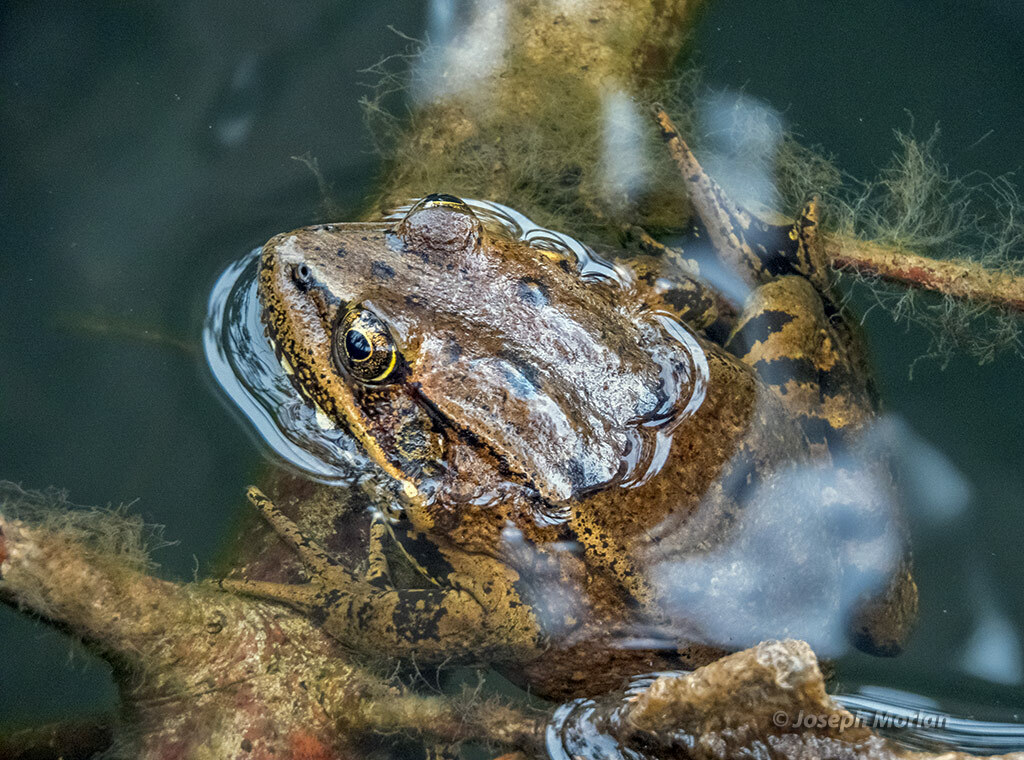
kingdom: Animalia
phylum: Chordata
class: Amphibia
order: Anura
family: Ranidae
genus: Rana
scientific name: Rana draytonii
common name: California red-legged frog
